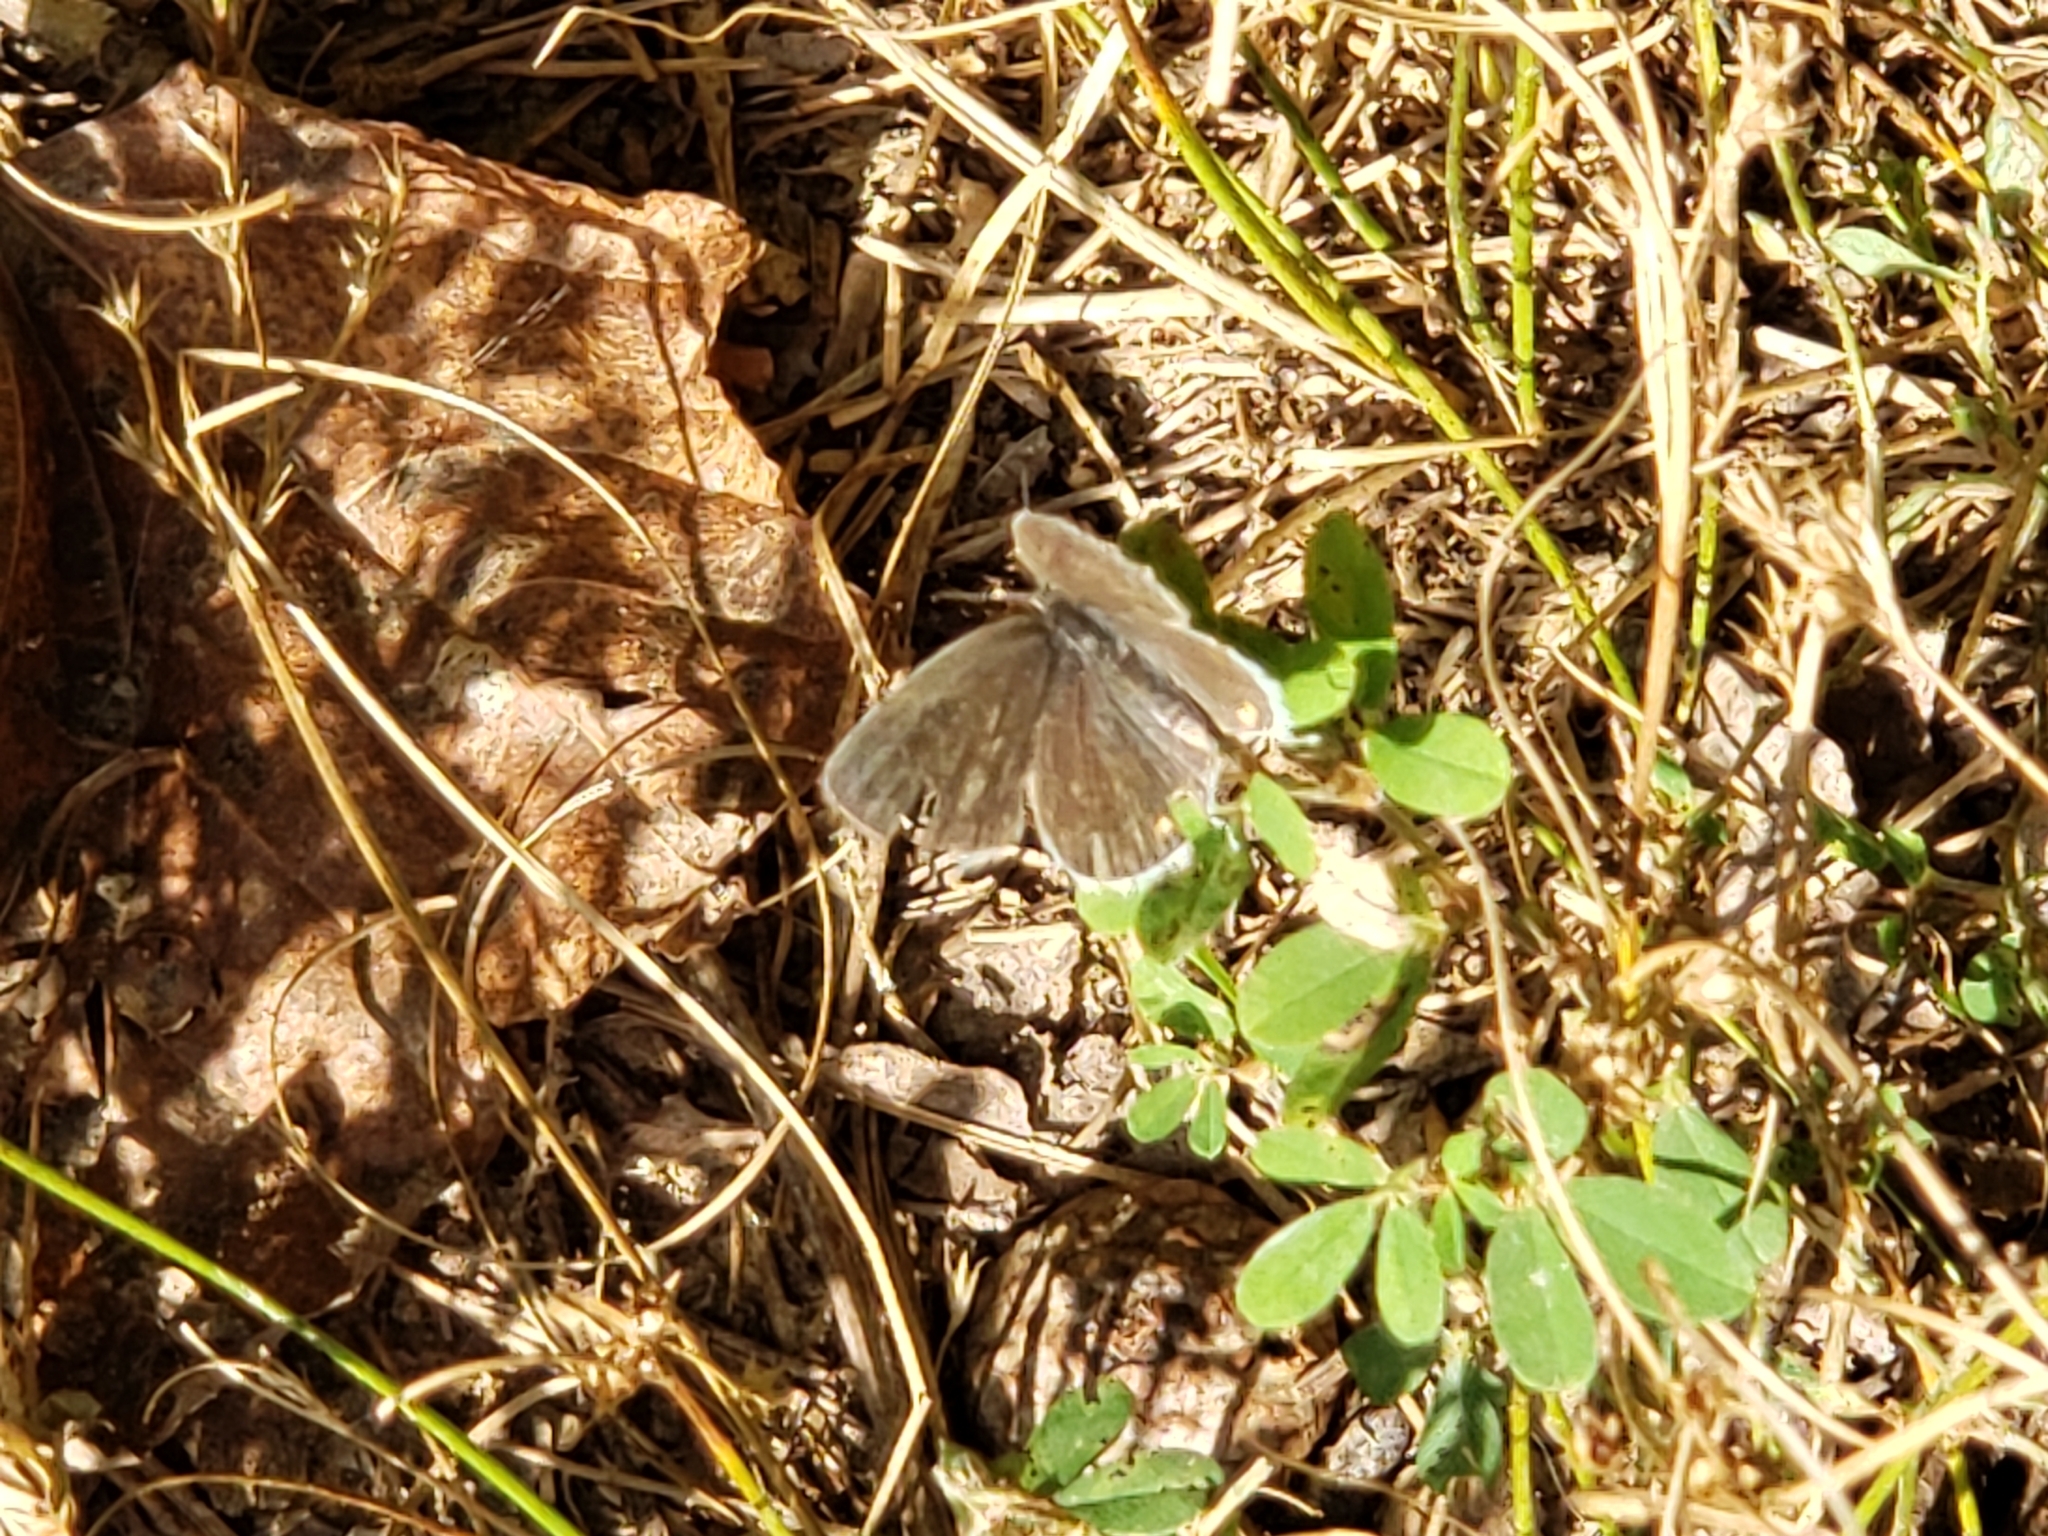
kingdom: Animalia
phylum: Arthropoda
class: Insecta
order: Lepidoptera
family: Lycaenidae
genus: Elkalyce
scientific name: Elkalyce comyntas
